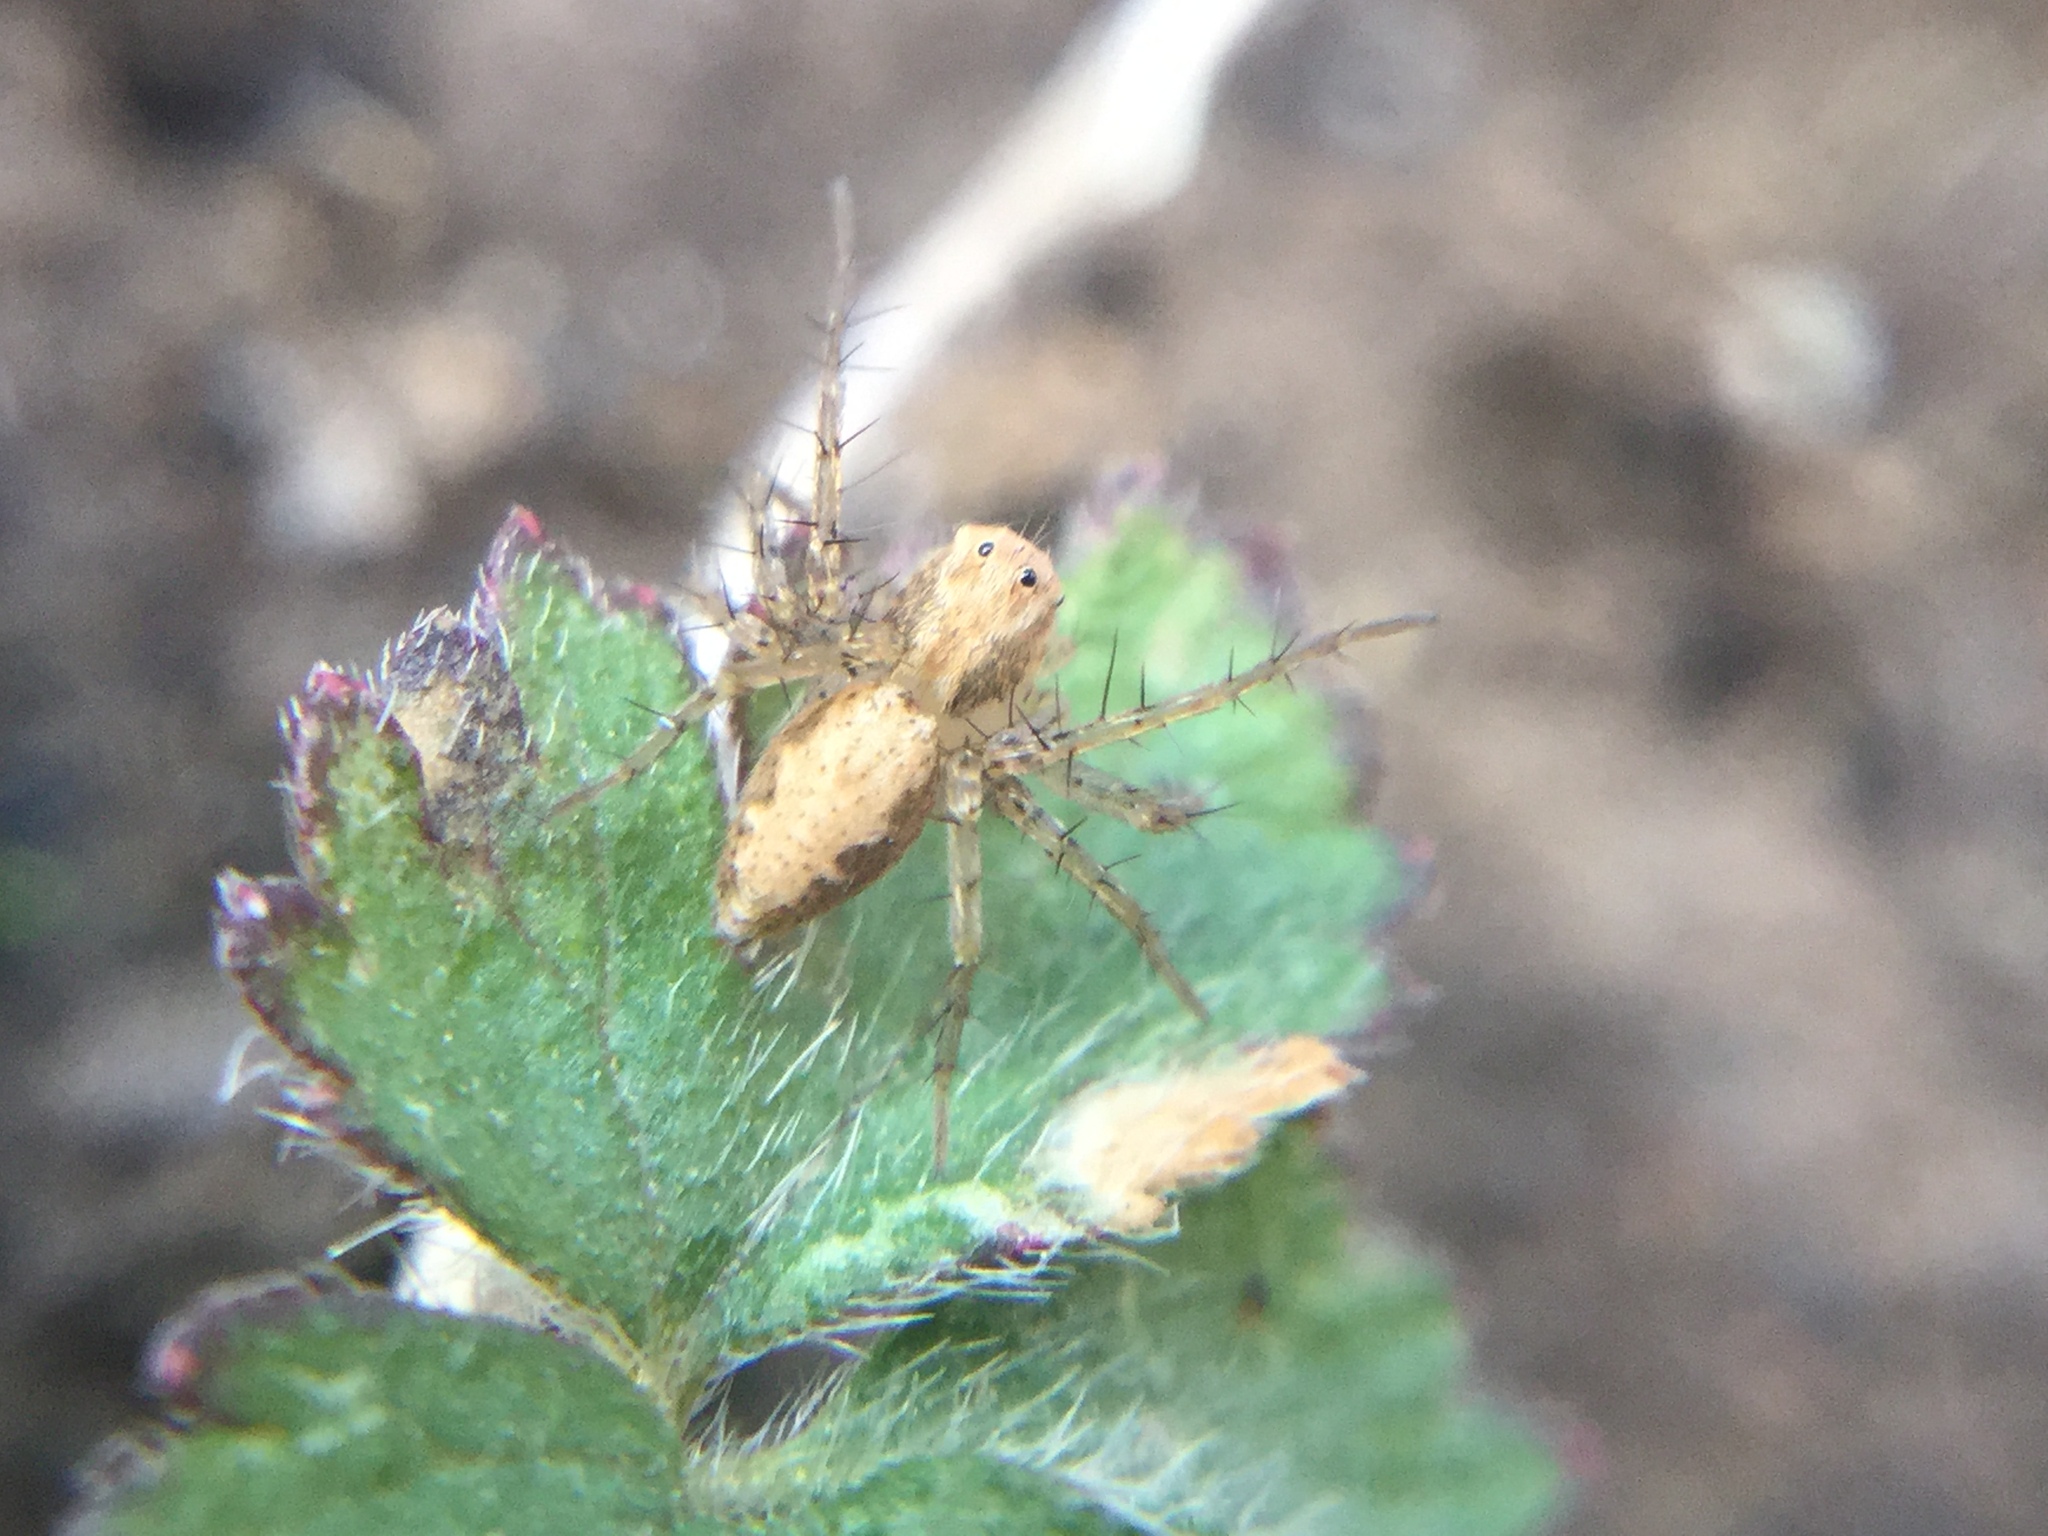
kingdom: Animalia
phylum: Arthropoda
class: Arachnida
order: Araneae
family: Oxyopidae
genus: Oxyopes
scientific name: Oxyopes aglossus
